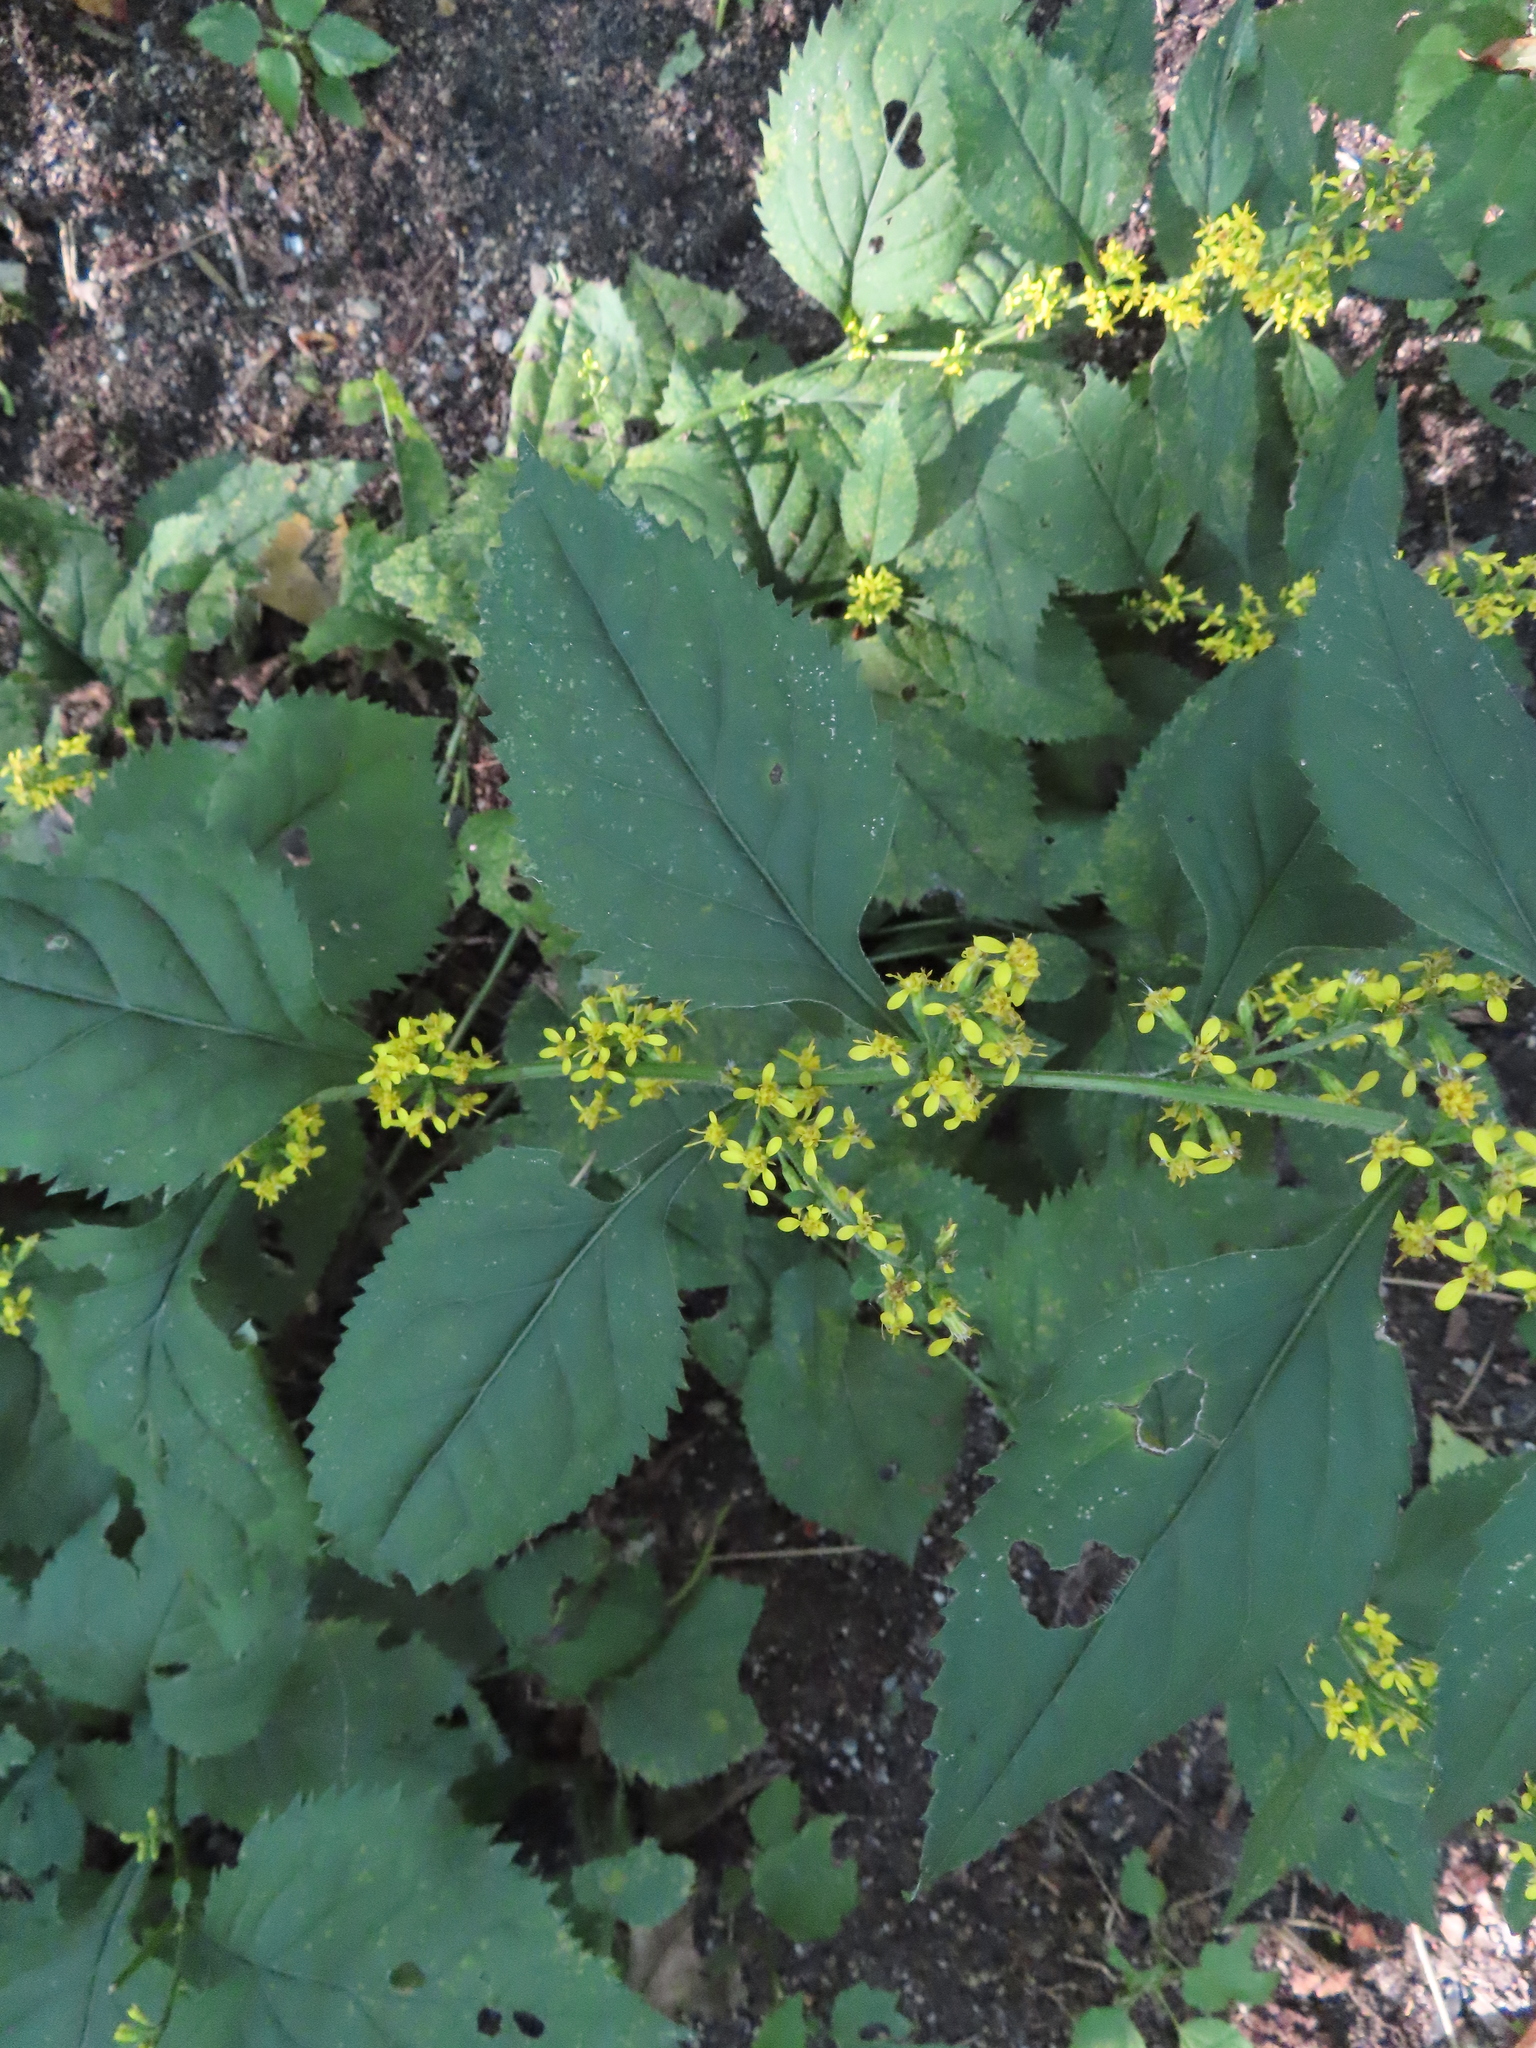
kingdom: Plantae
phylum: Tracheophyta
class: Magnoliopsida
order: Asterales
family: Asteraceae
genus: Solidago
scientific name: Solidago flexicaulis
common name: Zig-zag goldenrod
